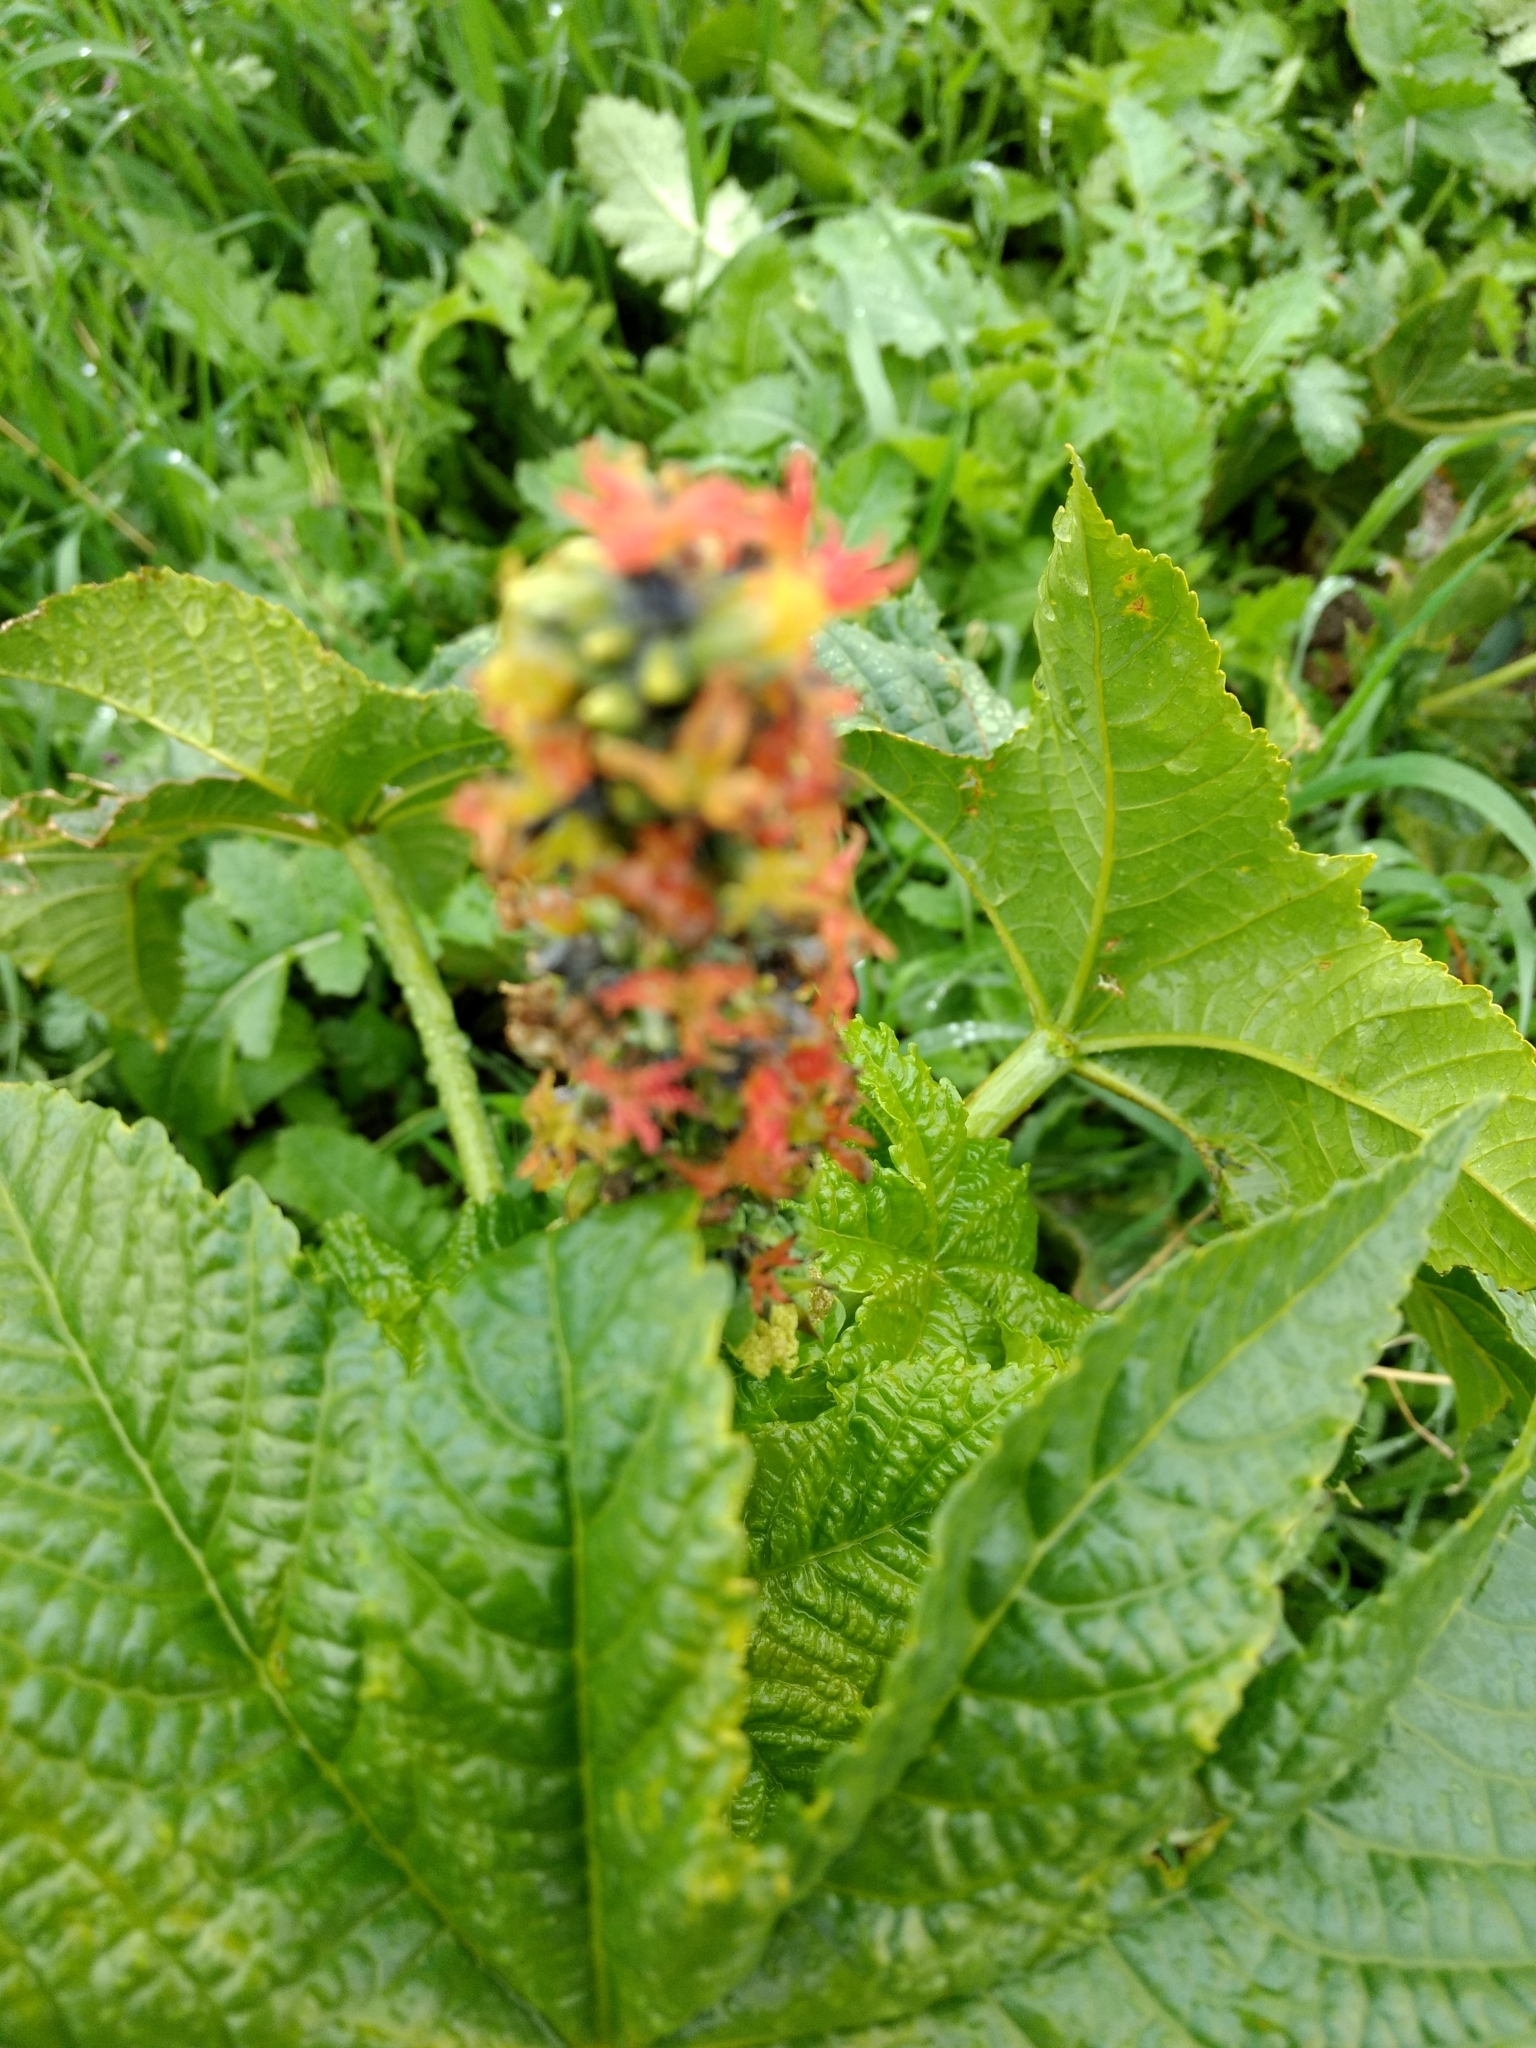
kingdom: Plantae
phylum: Tracheophyta
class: Magnoliopsida
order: Malpighiales
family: Euphorbiaceae
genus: Ricinus
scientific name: Ricinus communis
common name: Castor-oil-plant
